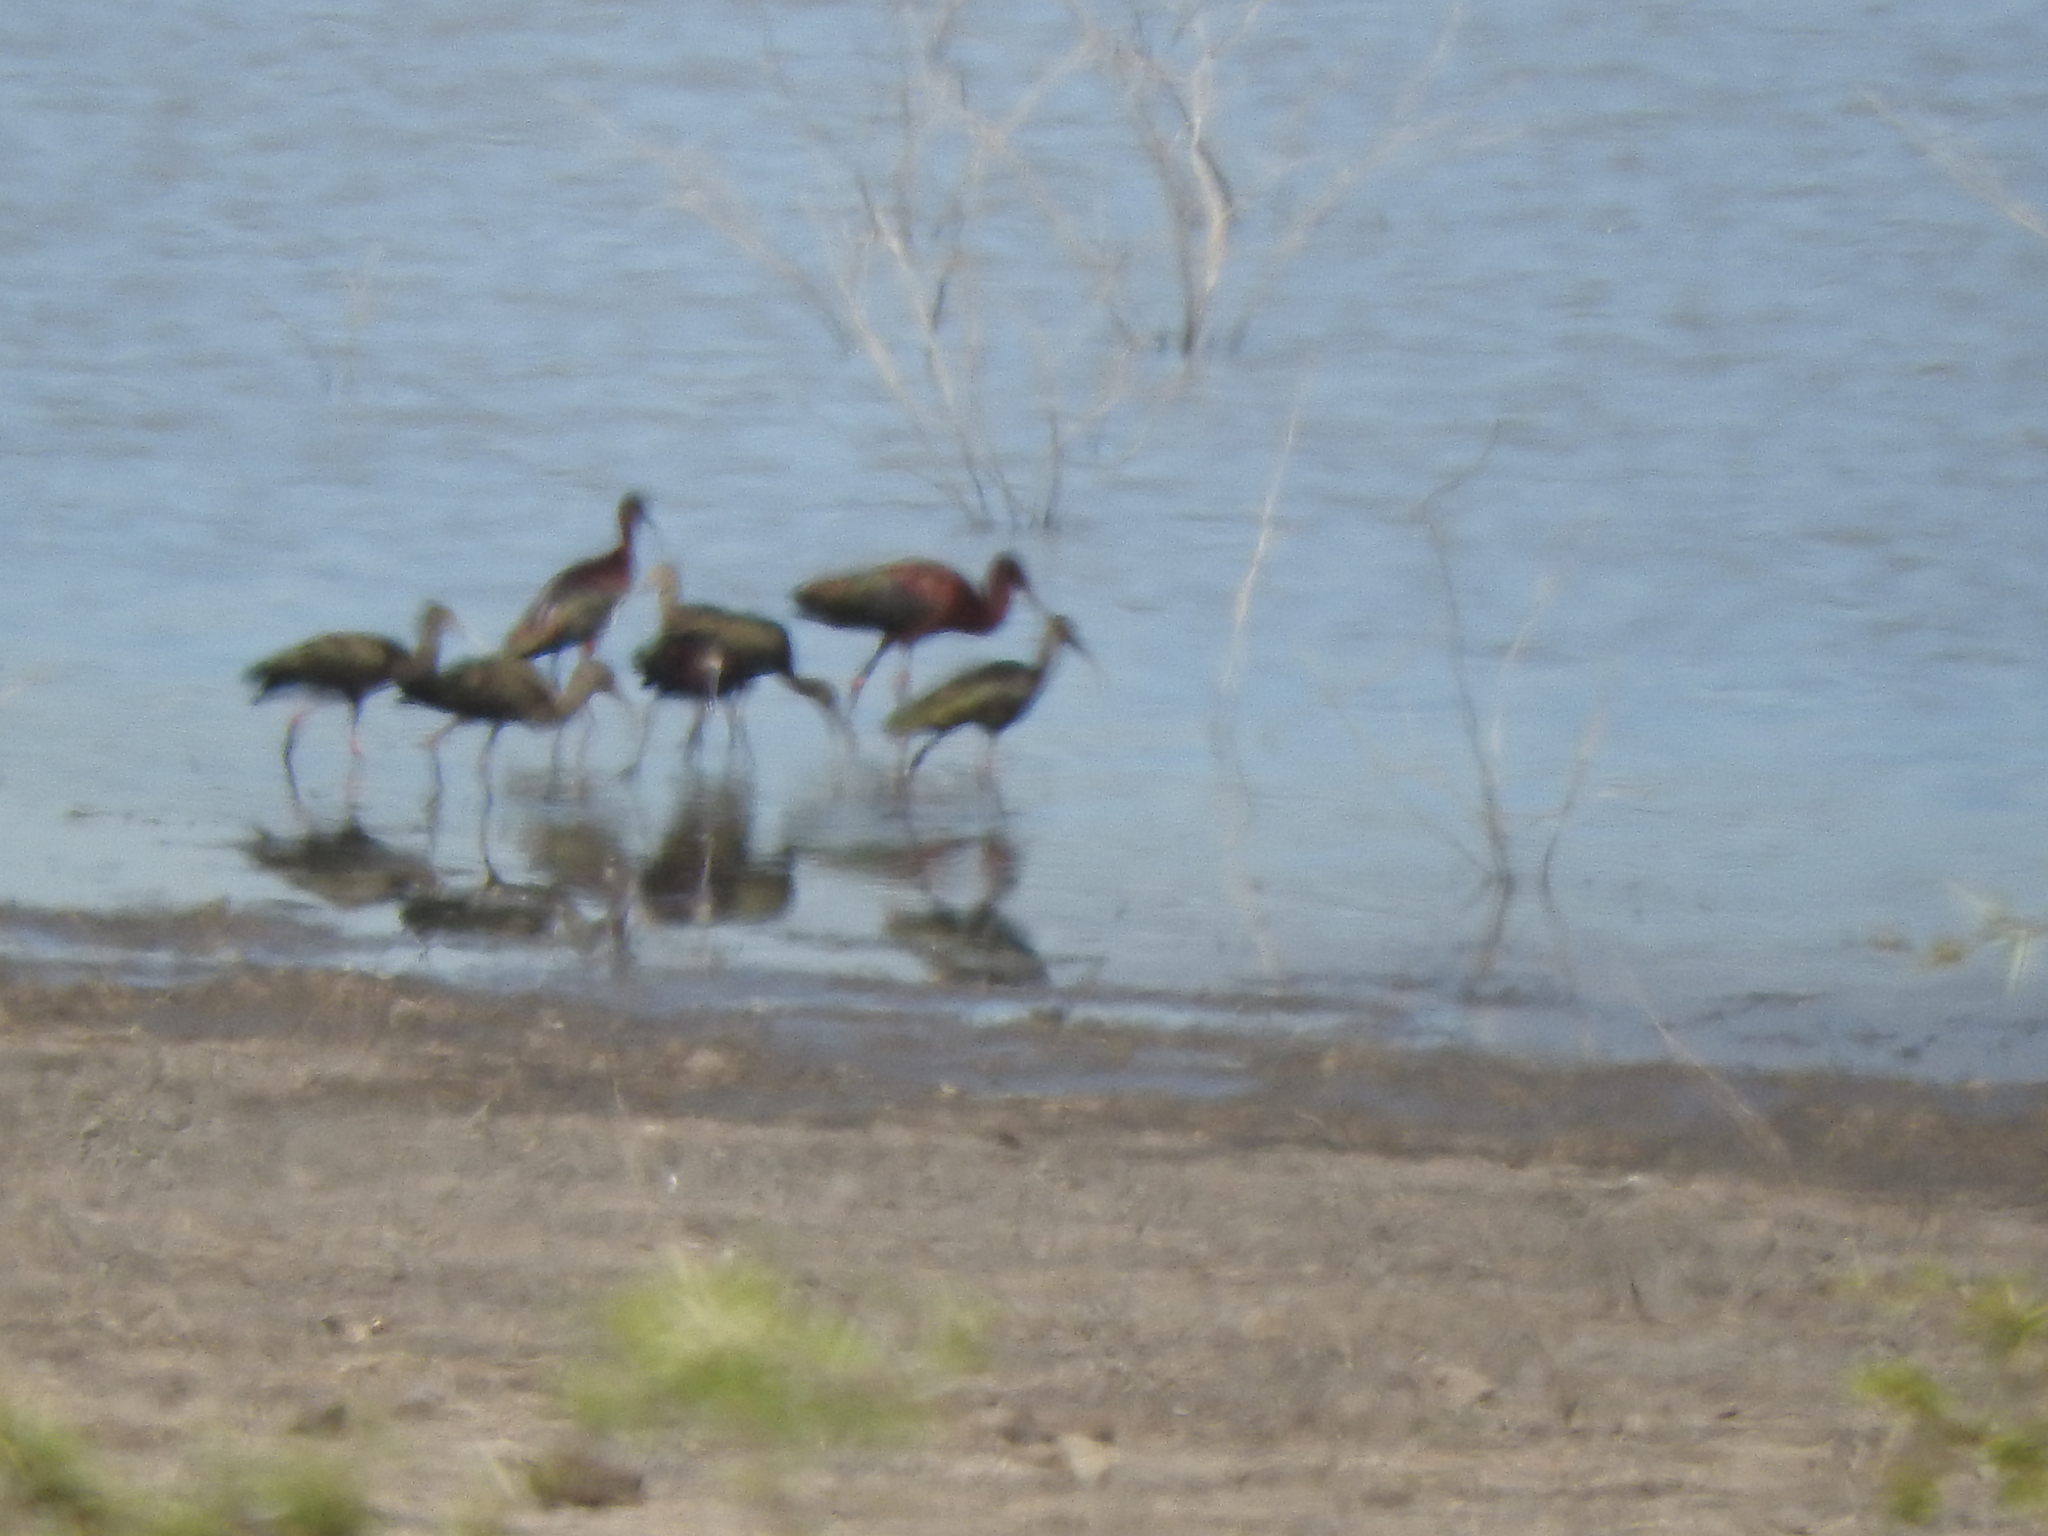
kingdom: Animalia
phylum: Chordata
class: Aves
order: Pelecaniformes
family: Threskiornithidae
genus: Plegadis
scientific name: Plegadis chihi
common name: White-faced ibis
